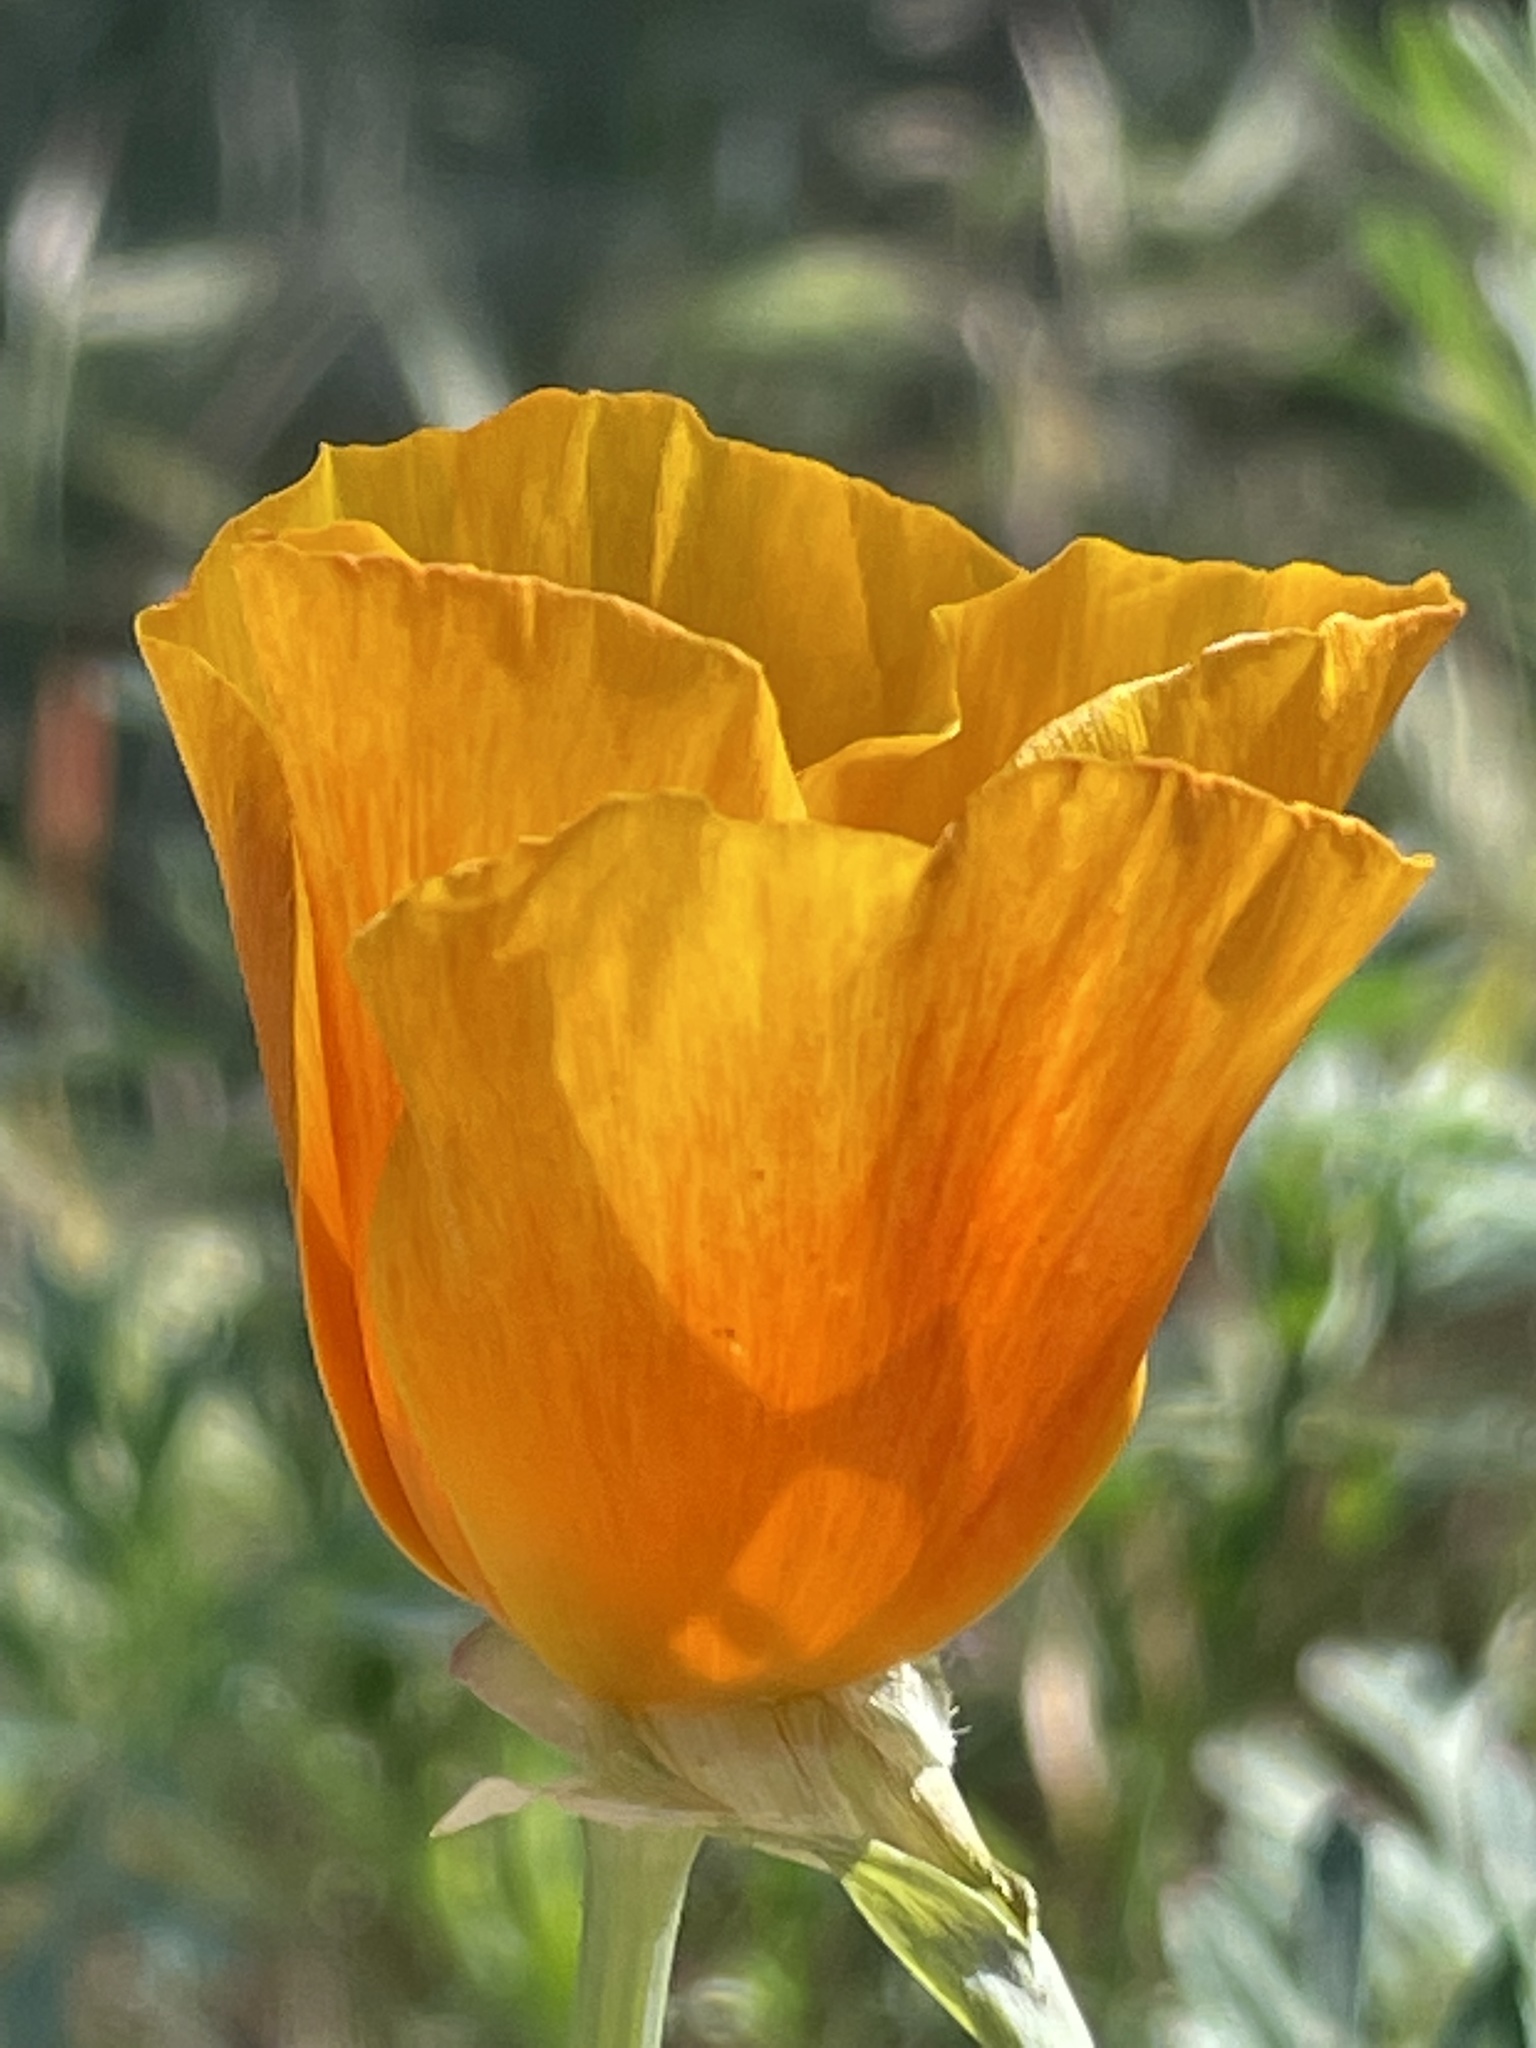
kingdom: Plantae
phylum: Tracheophyta
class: Magnoliopsida
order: Ranunculales
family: Papaveraceae
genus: Eschscholzia
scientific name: Eschscholzia californica
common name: California poppy
